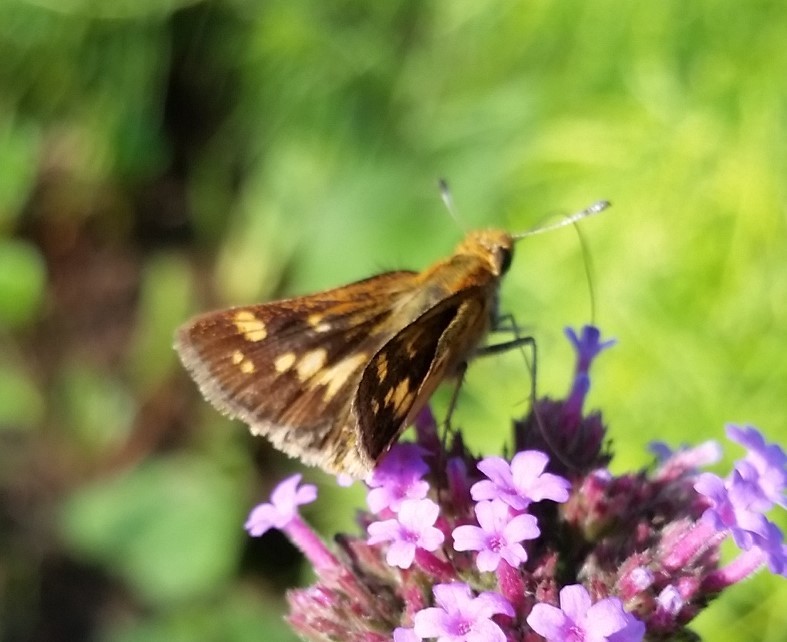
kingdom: Animalia
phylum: Arthropoda
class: Insecta
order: Lepidoptera
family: Hesperiidae
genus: Polites
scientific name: Polites coras
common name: Peck's skipper
